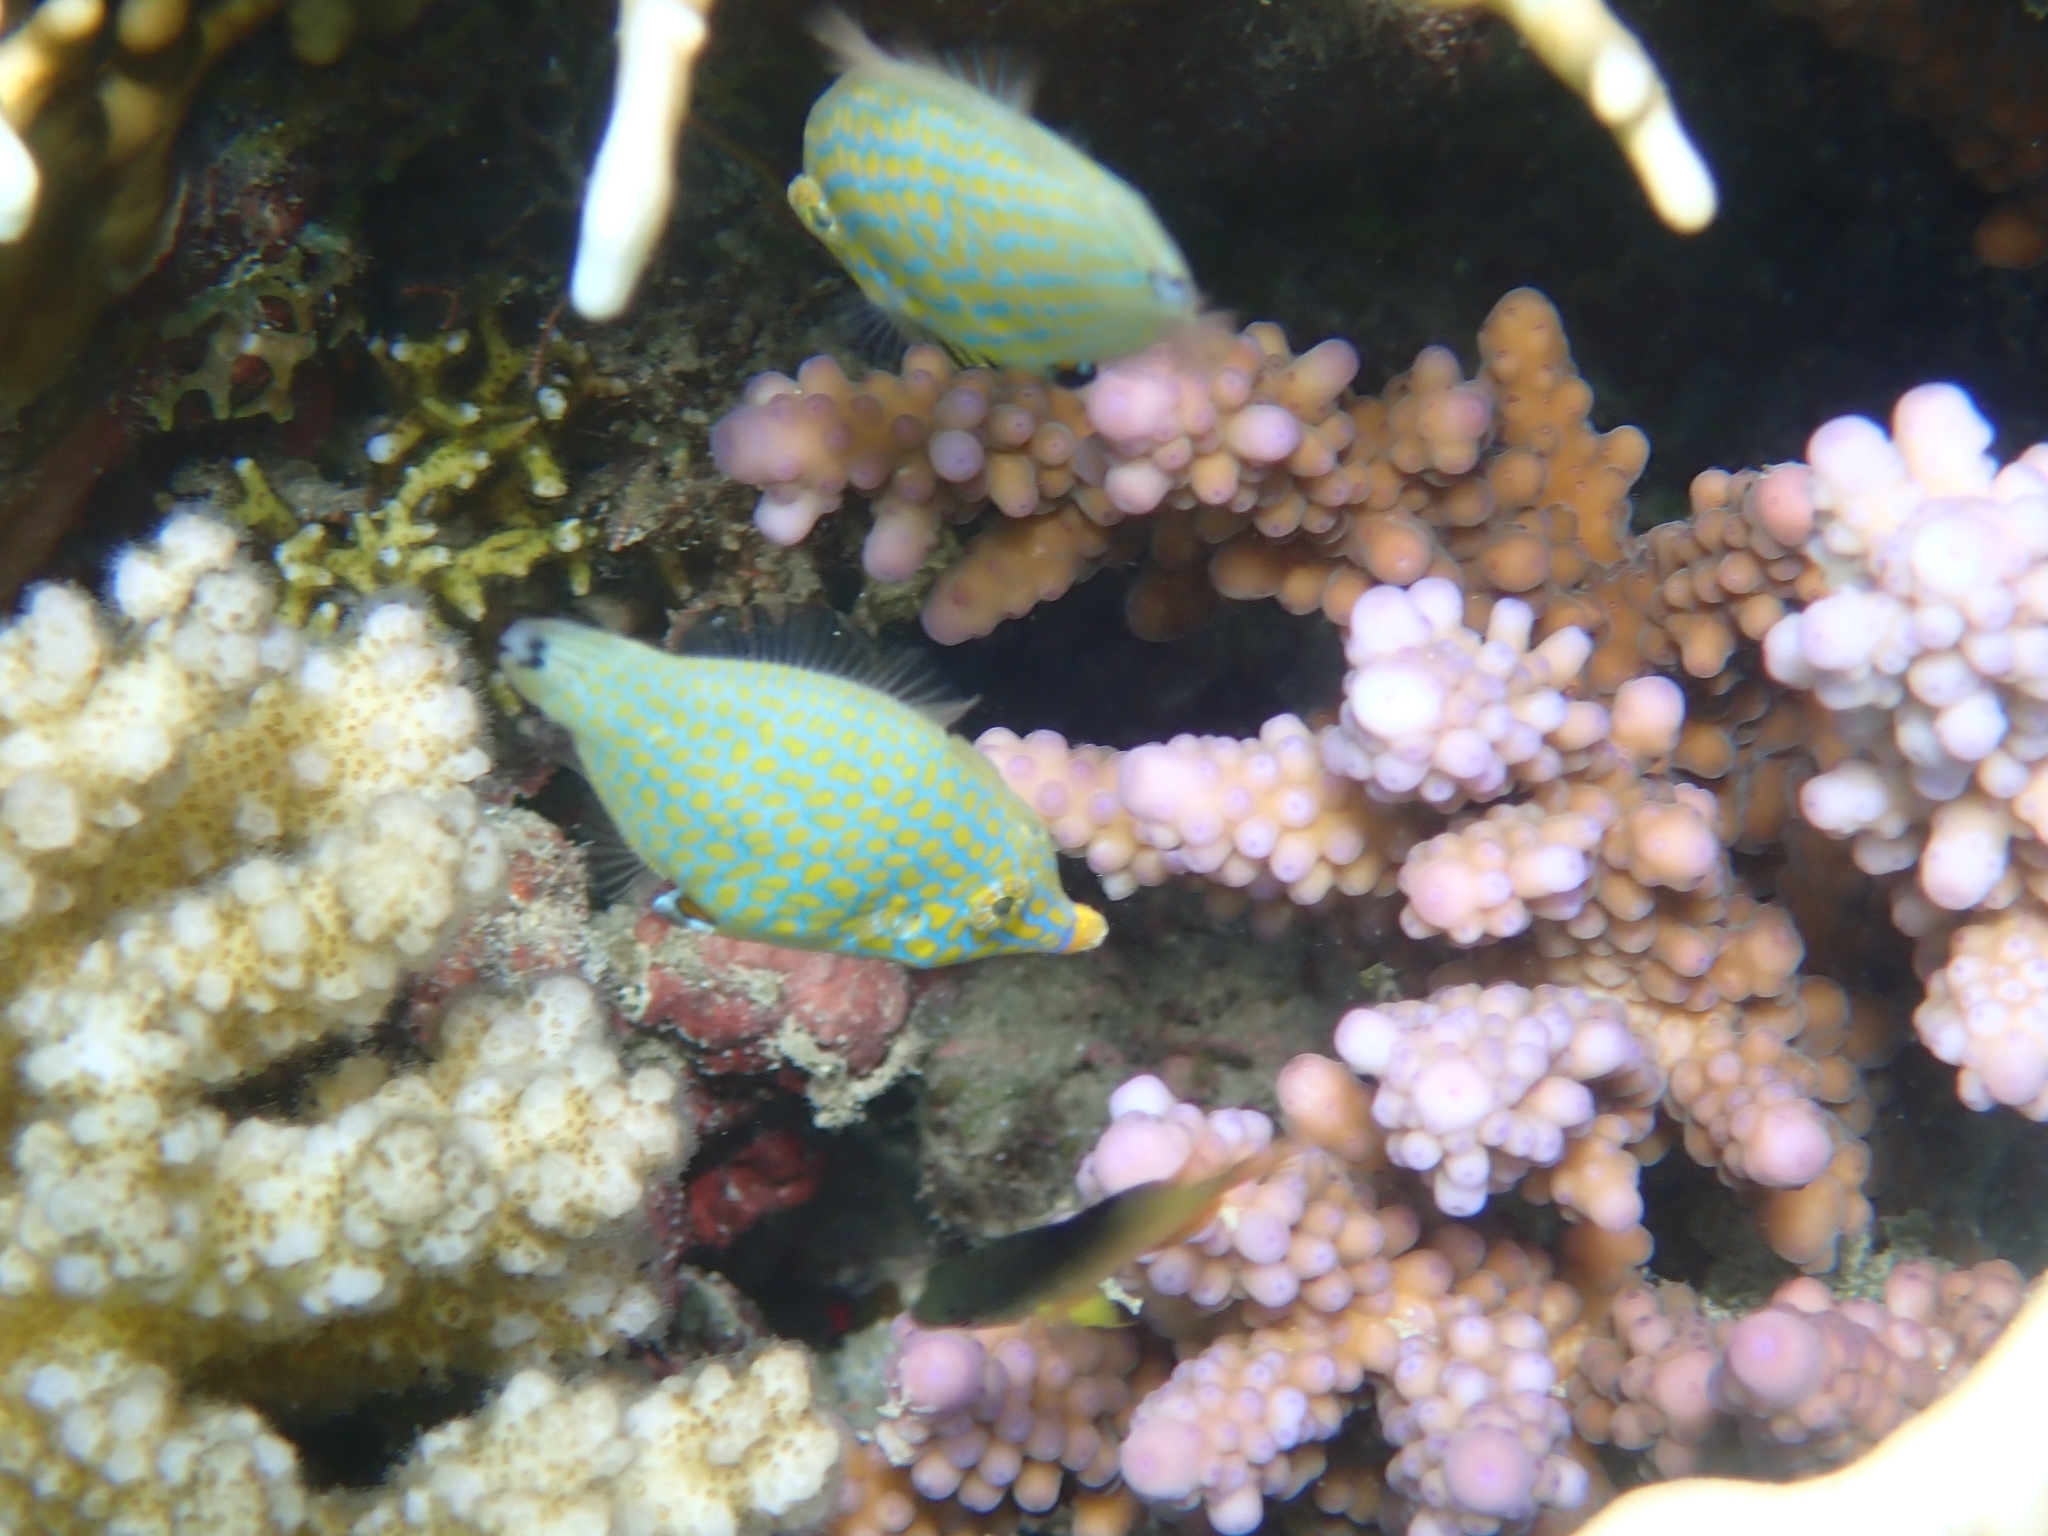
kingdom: Animalia
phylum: Chordata
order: Tetraodontiformes
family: Monacanthidae
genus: Oxymonacanthus
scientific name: Oxymonacanthus halli
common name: Red sea harlequin filefish
